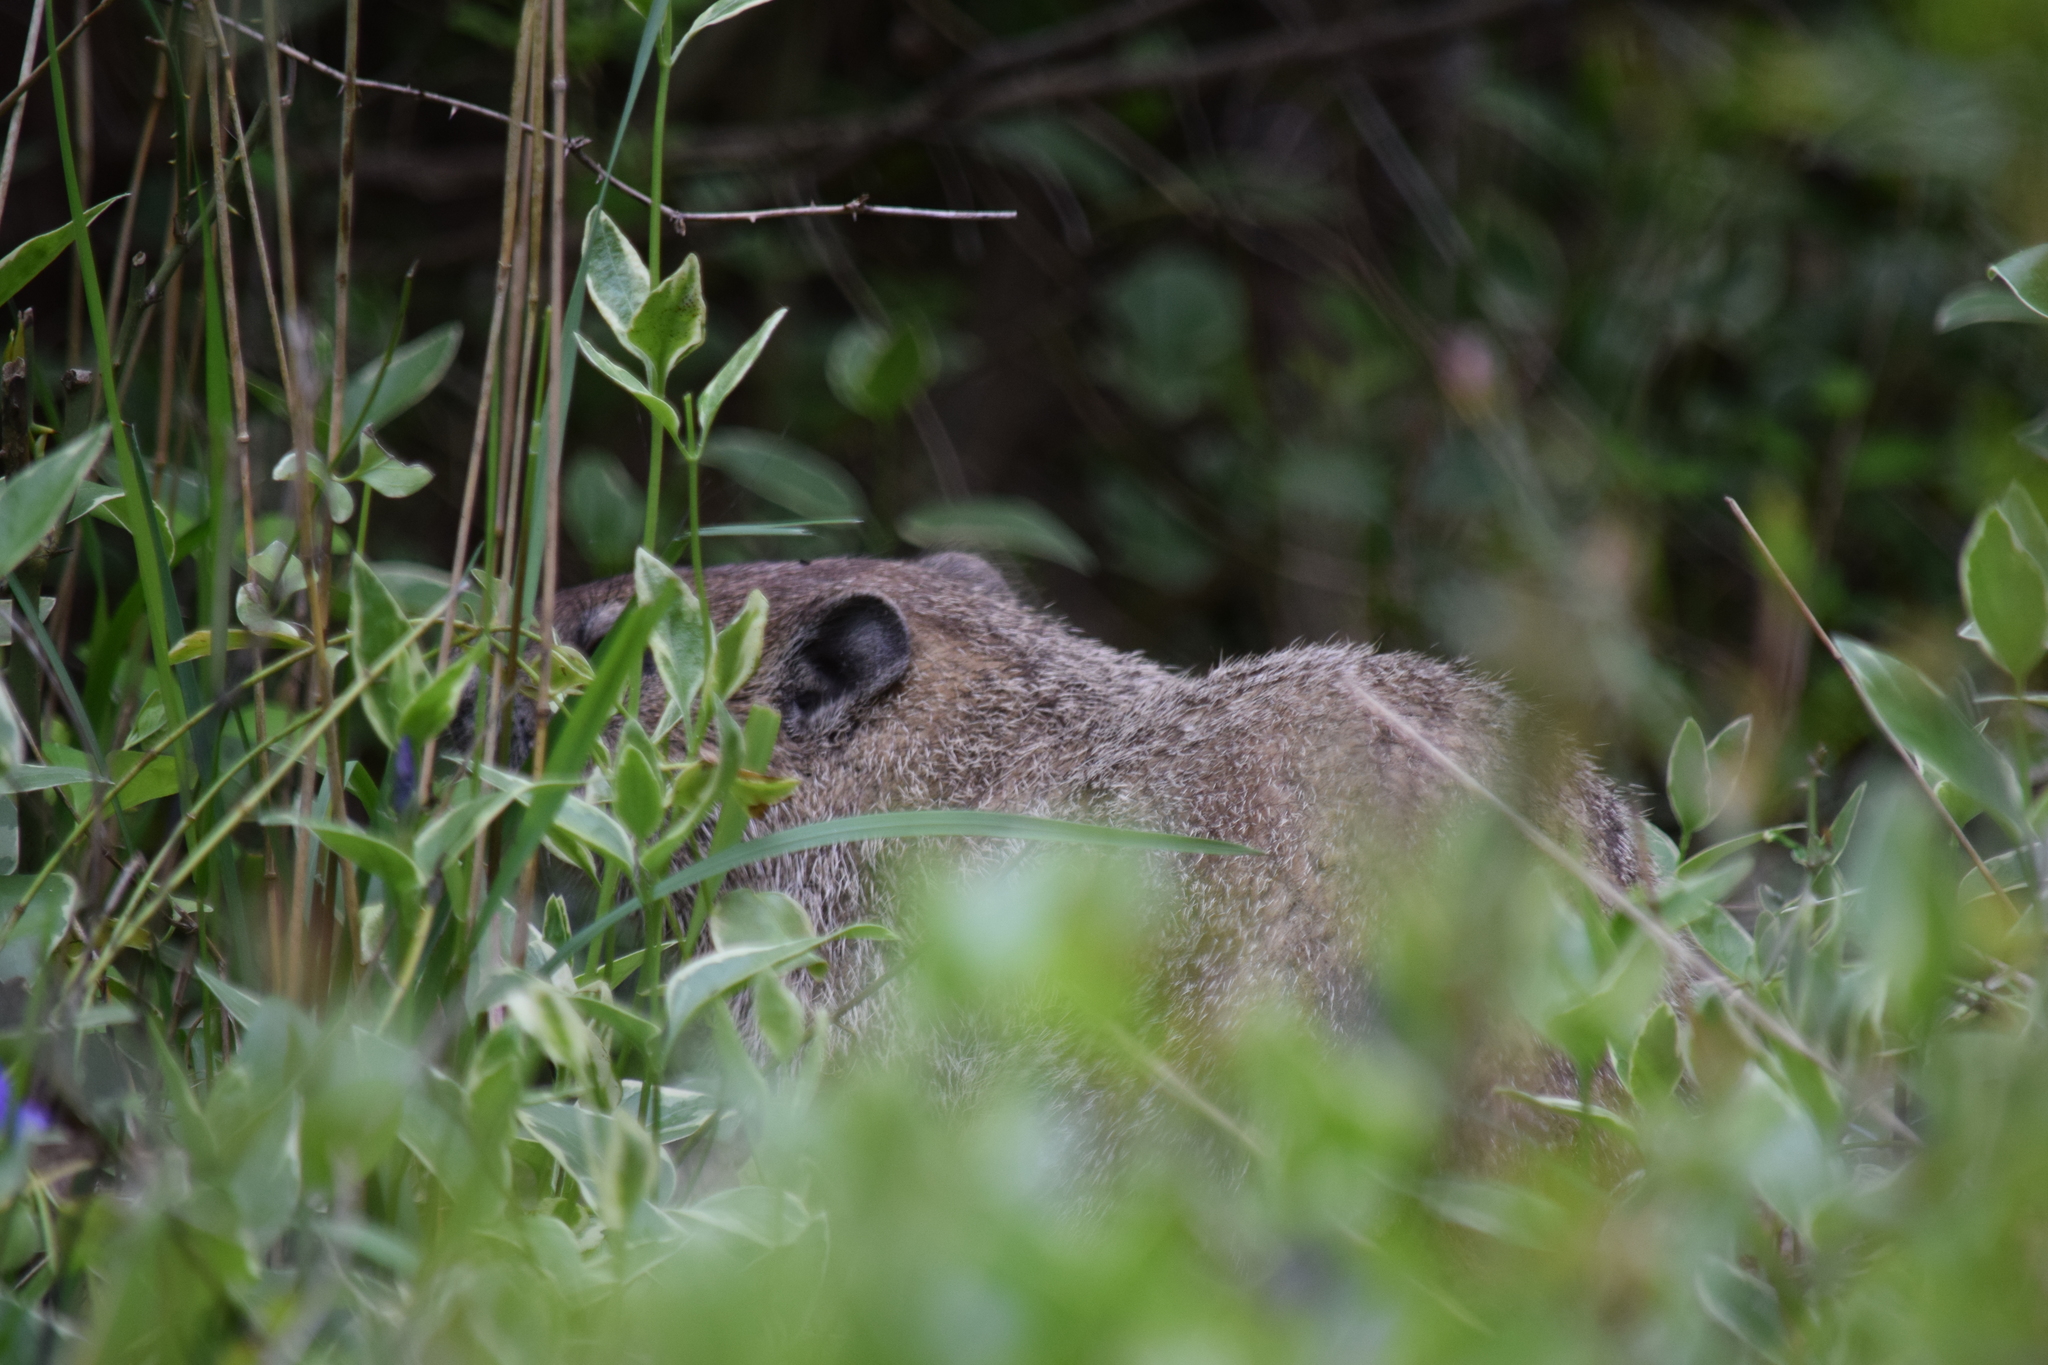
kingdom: Animalia
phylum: Chordata
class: Mammalia
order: Rodentia
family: Sciuridae
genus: Marmota
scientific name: Marmota monax
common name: Groundhog
